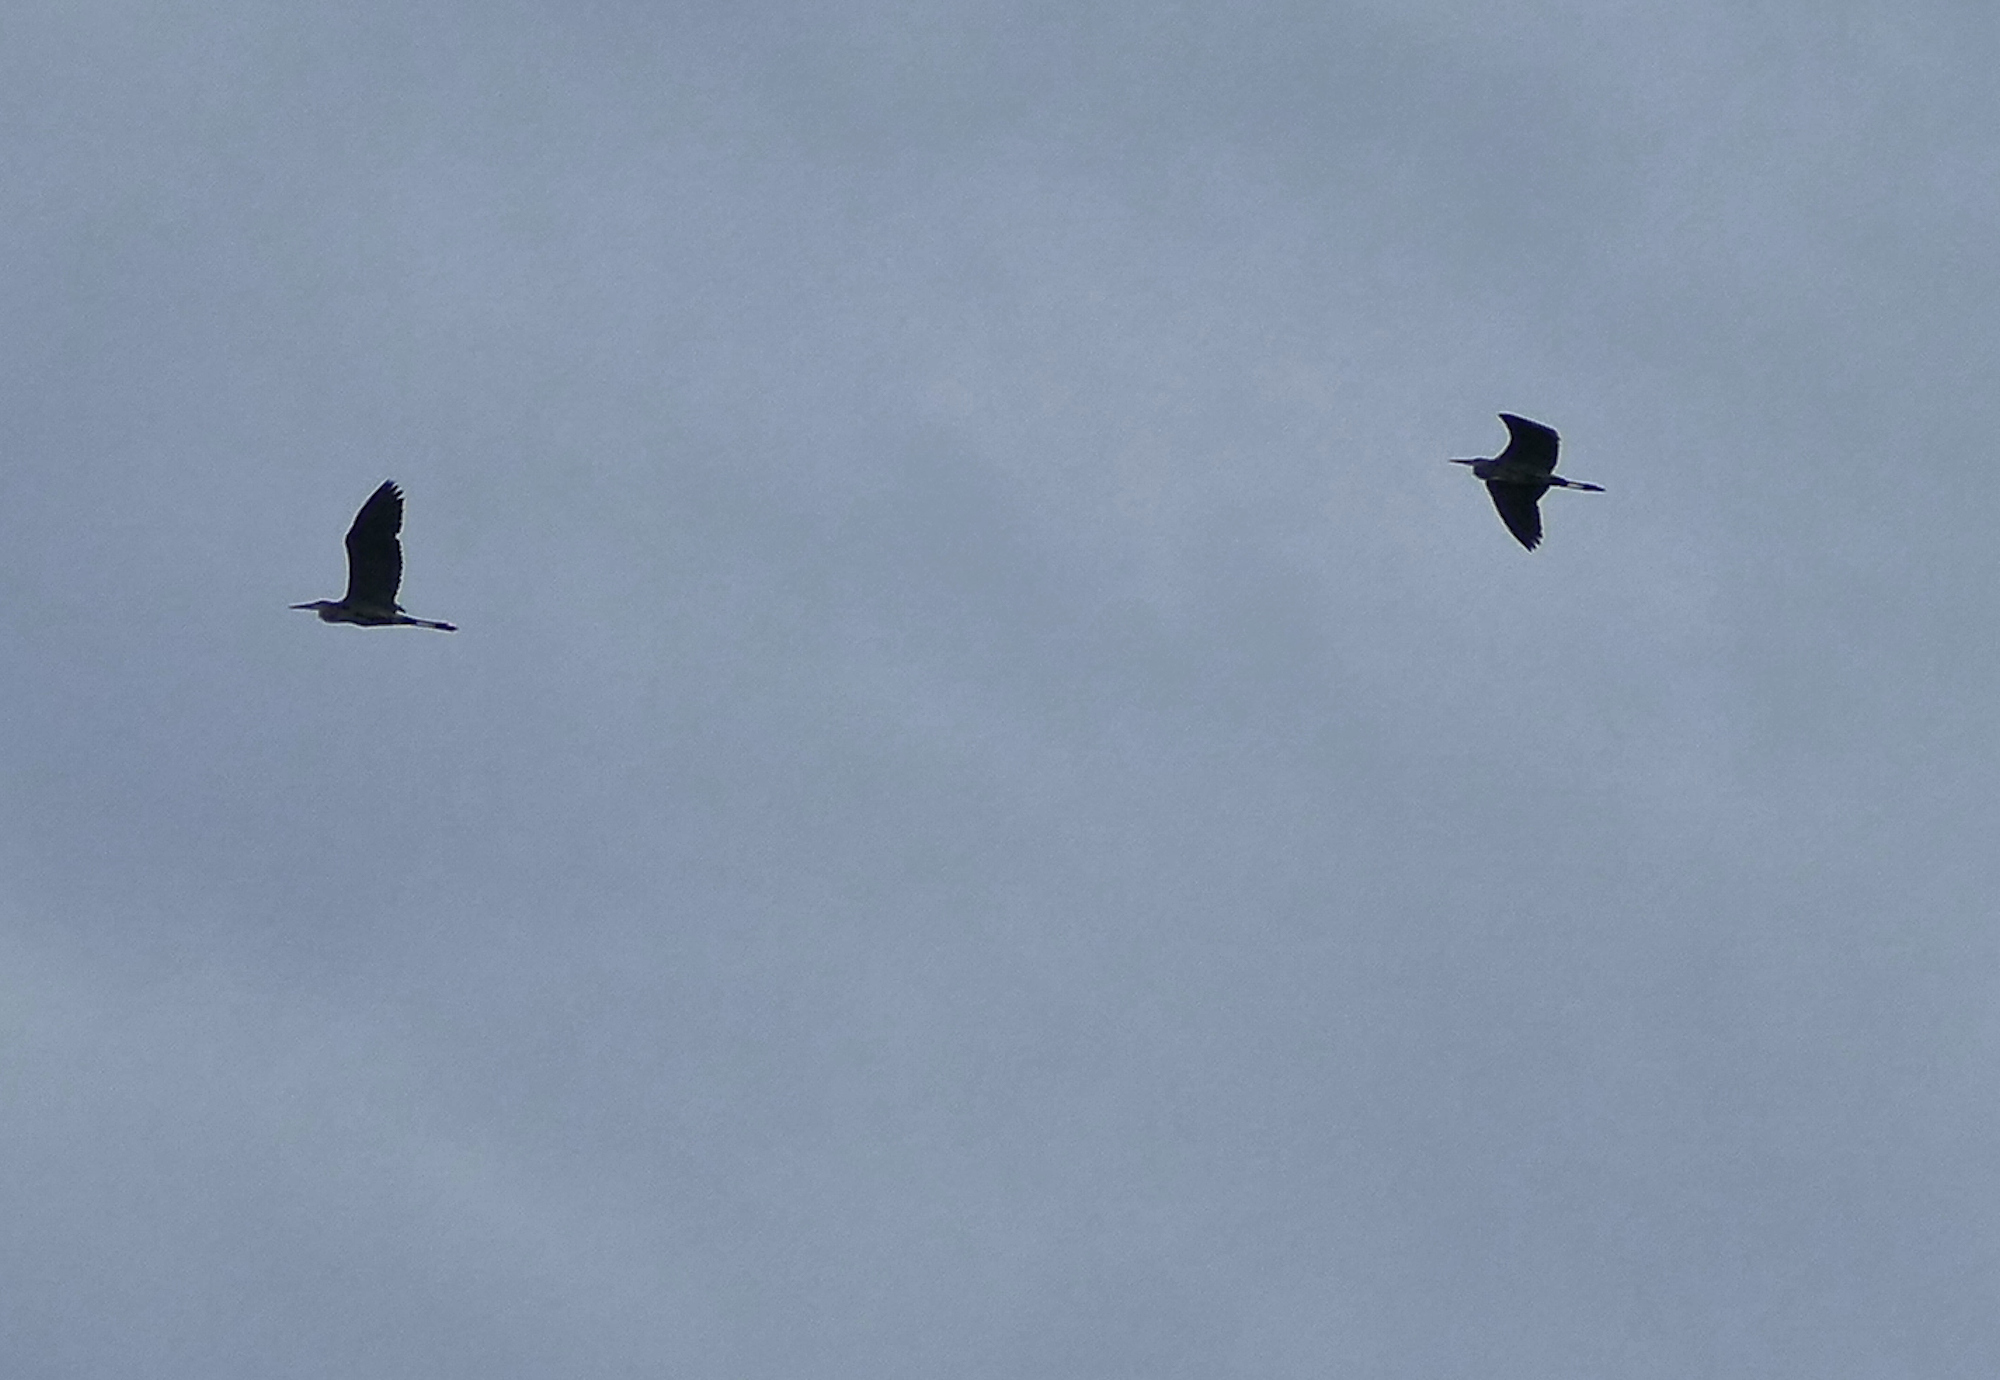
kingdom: Animalia
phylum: Chordata
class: Aves
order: Pelecaniformes
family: Ardeidae
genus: Ardea
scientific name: Ardea herodias
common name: Great blue heron
